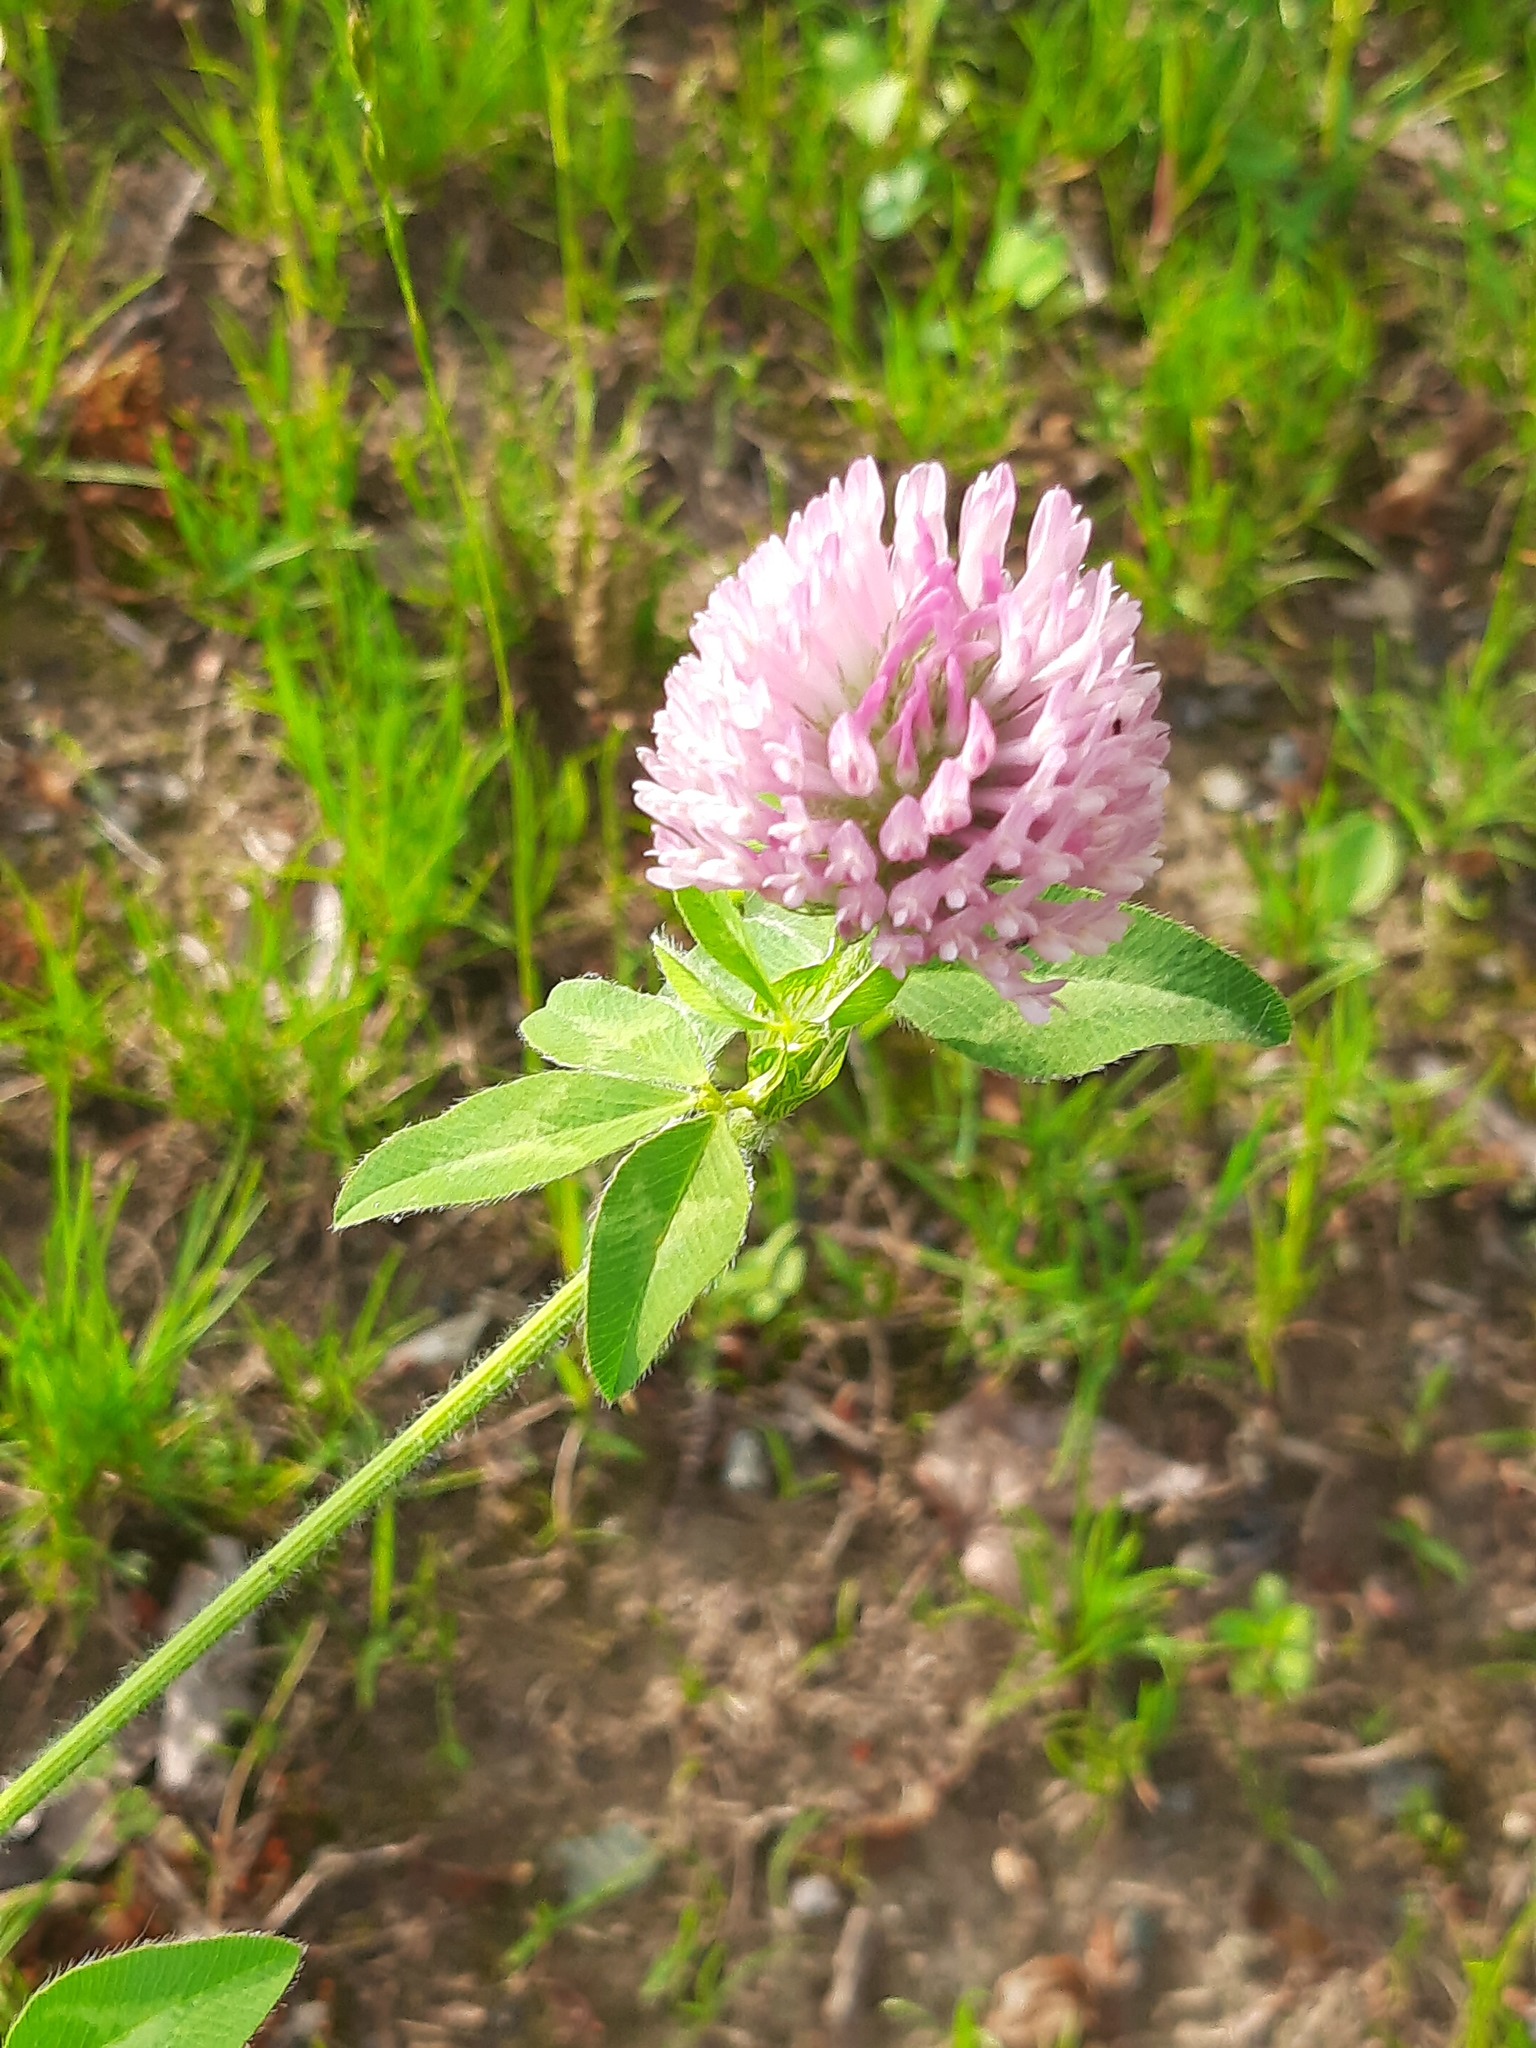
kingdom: Plantae
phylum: Tracheophyta
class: Magnoliopsida
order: Fabales
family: Fabaceae
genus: Trifolium
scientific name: Trifolium pratense
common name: Red clover
